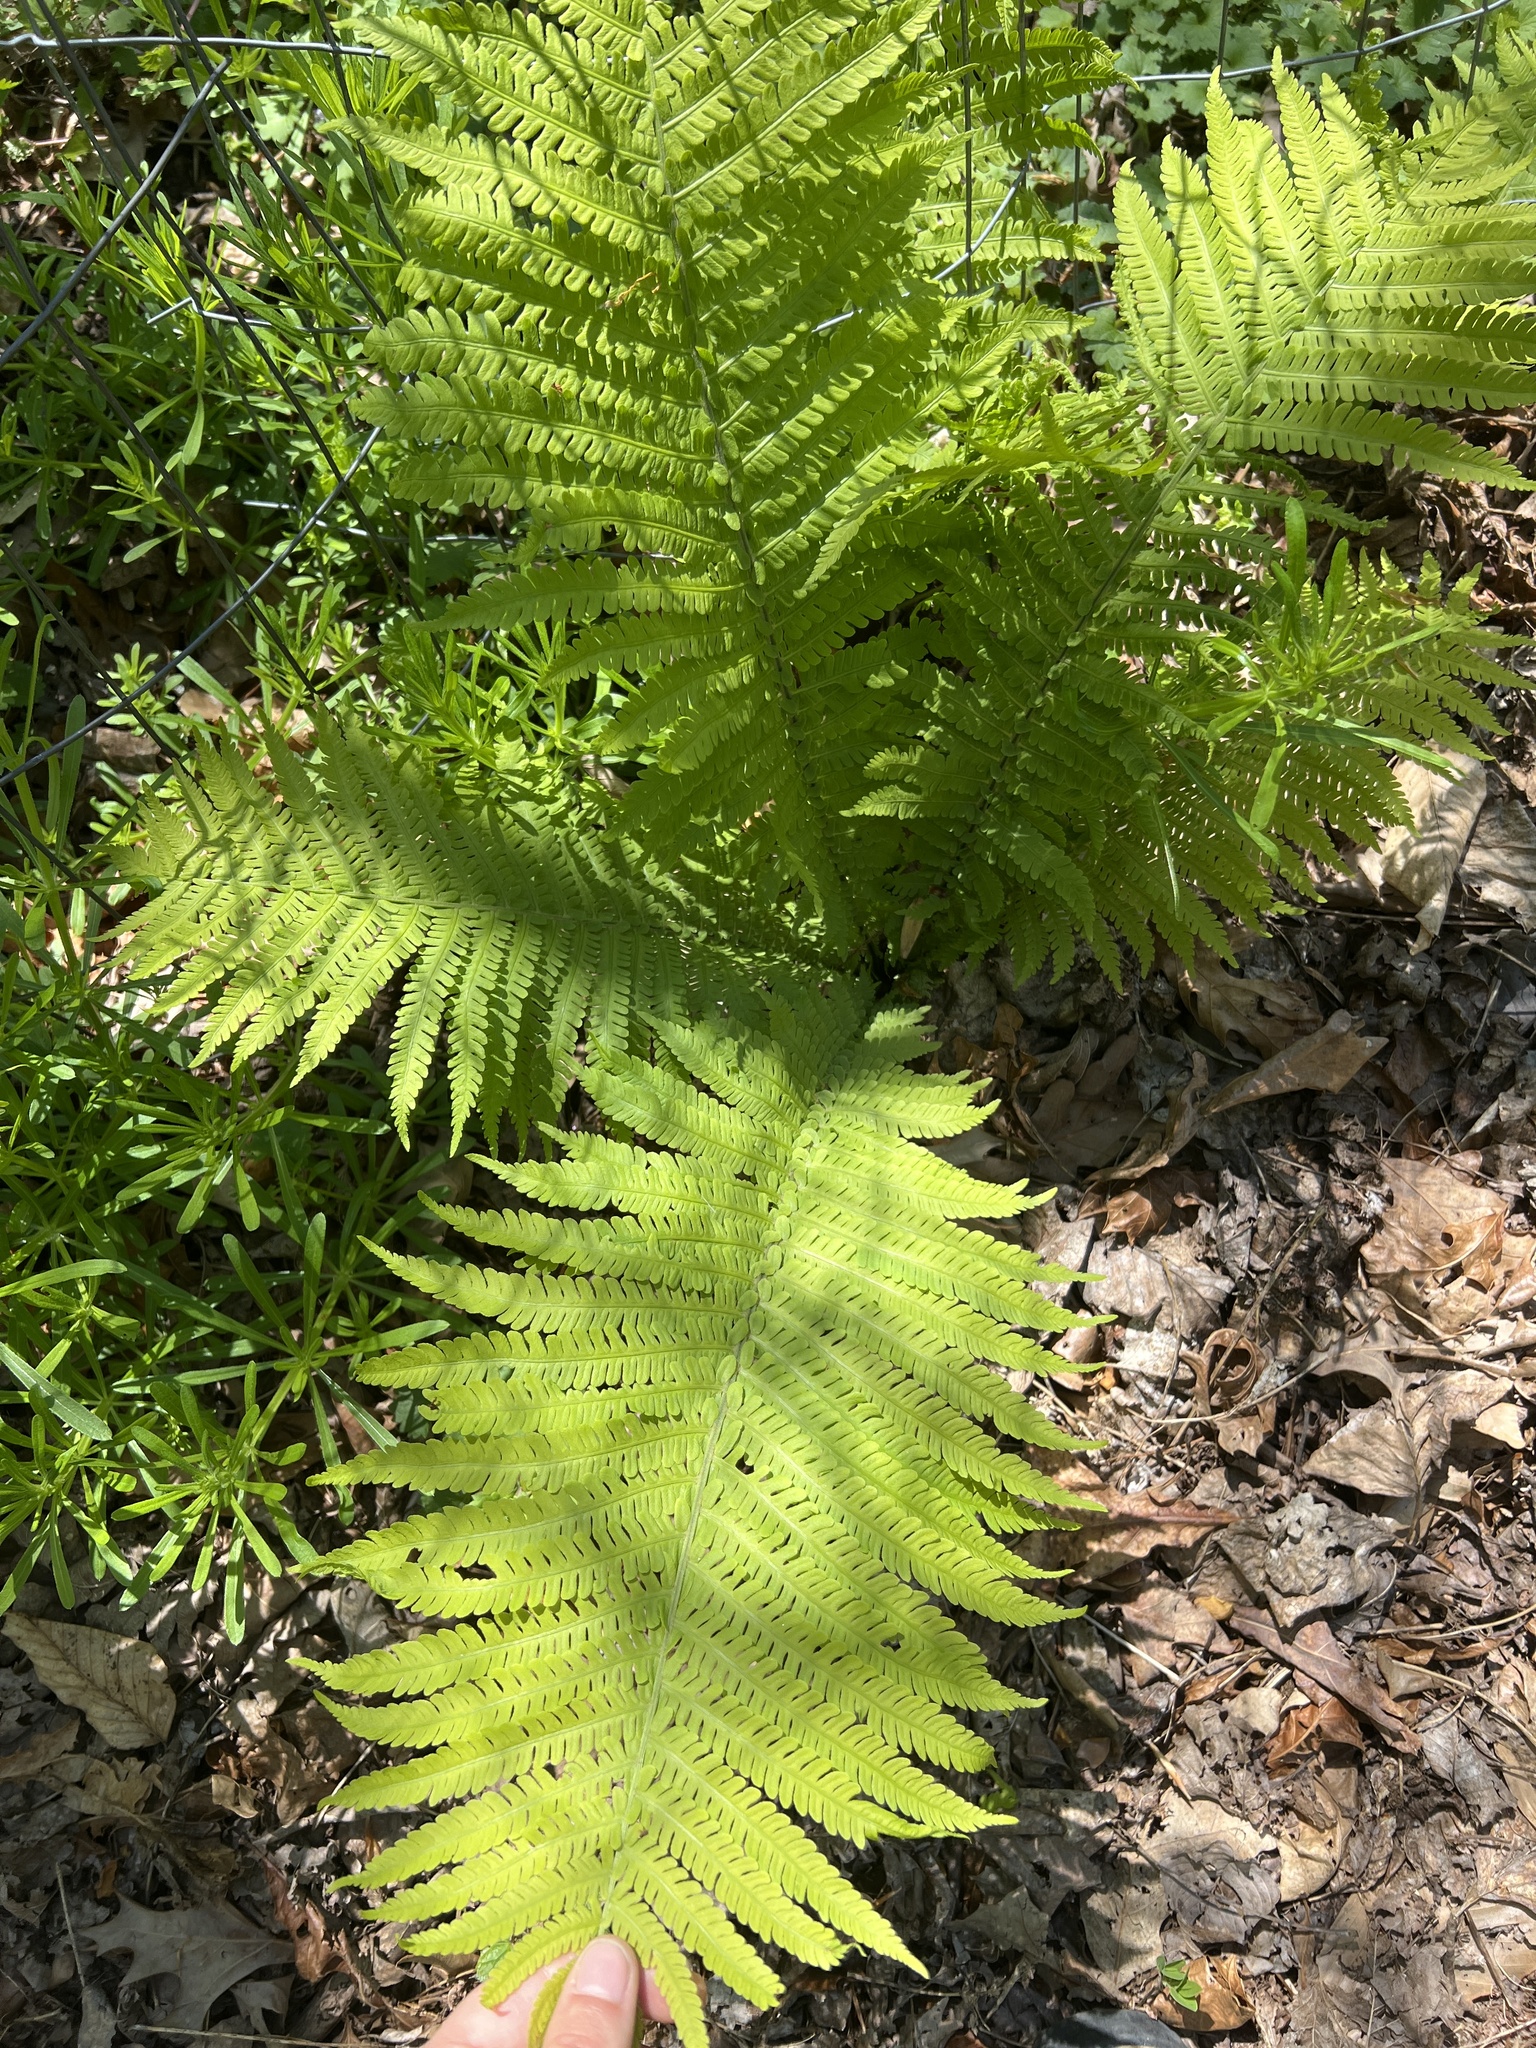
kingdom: Plantae
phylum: Tracheophyta
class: Polypodiopsida
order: Polypodiales
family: Onocleaceae
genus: Matteuccia
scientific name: Matteuccia struthiopteris
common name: Ostrich fern
